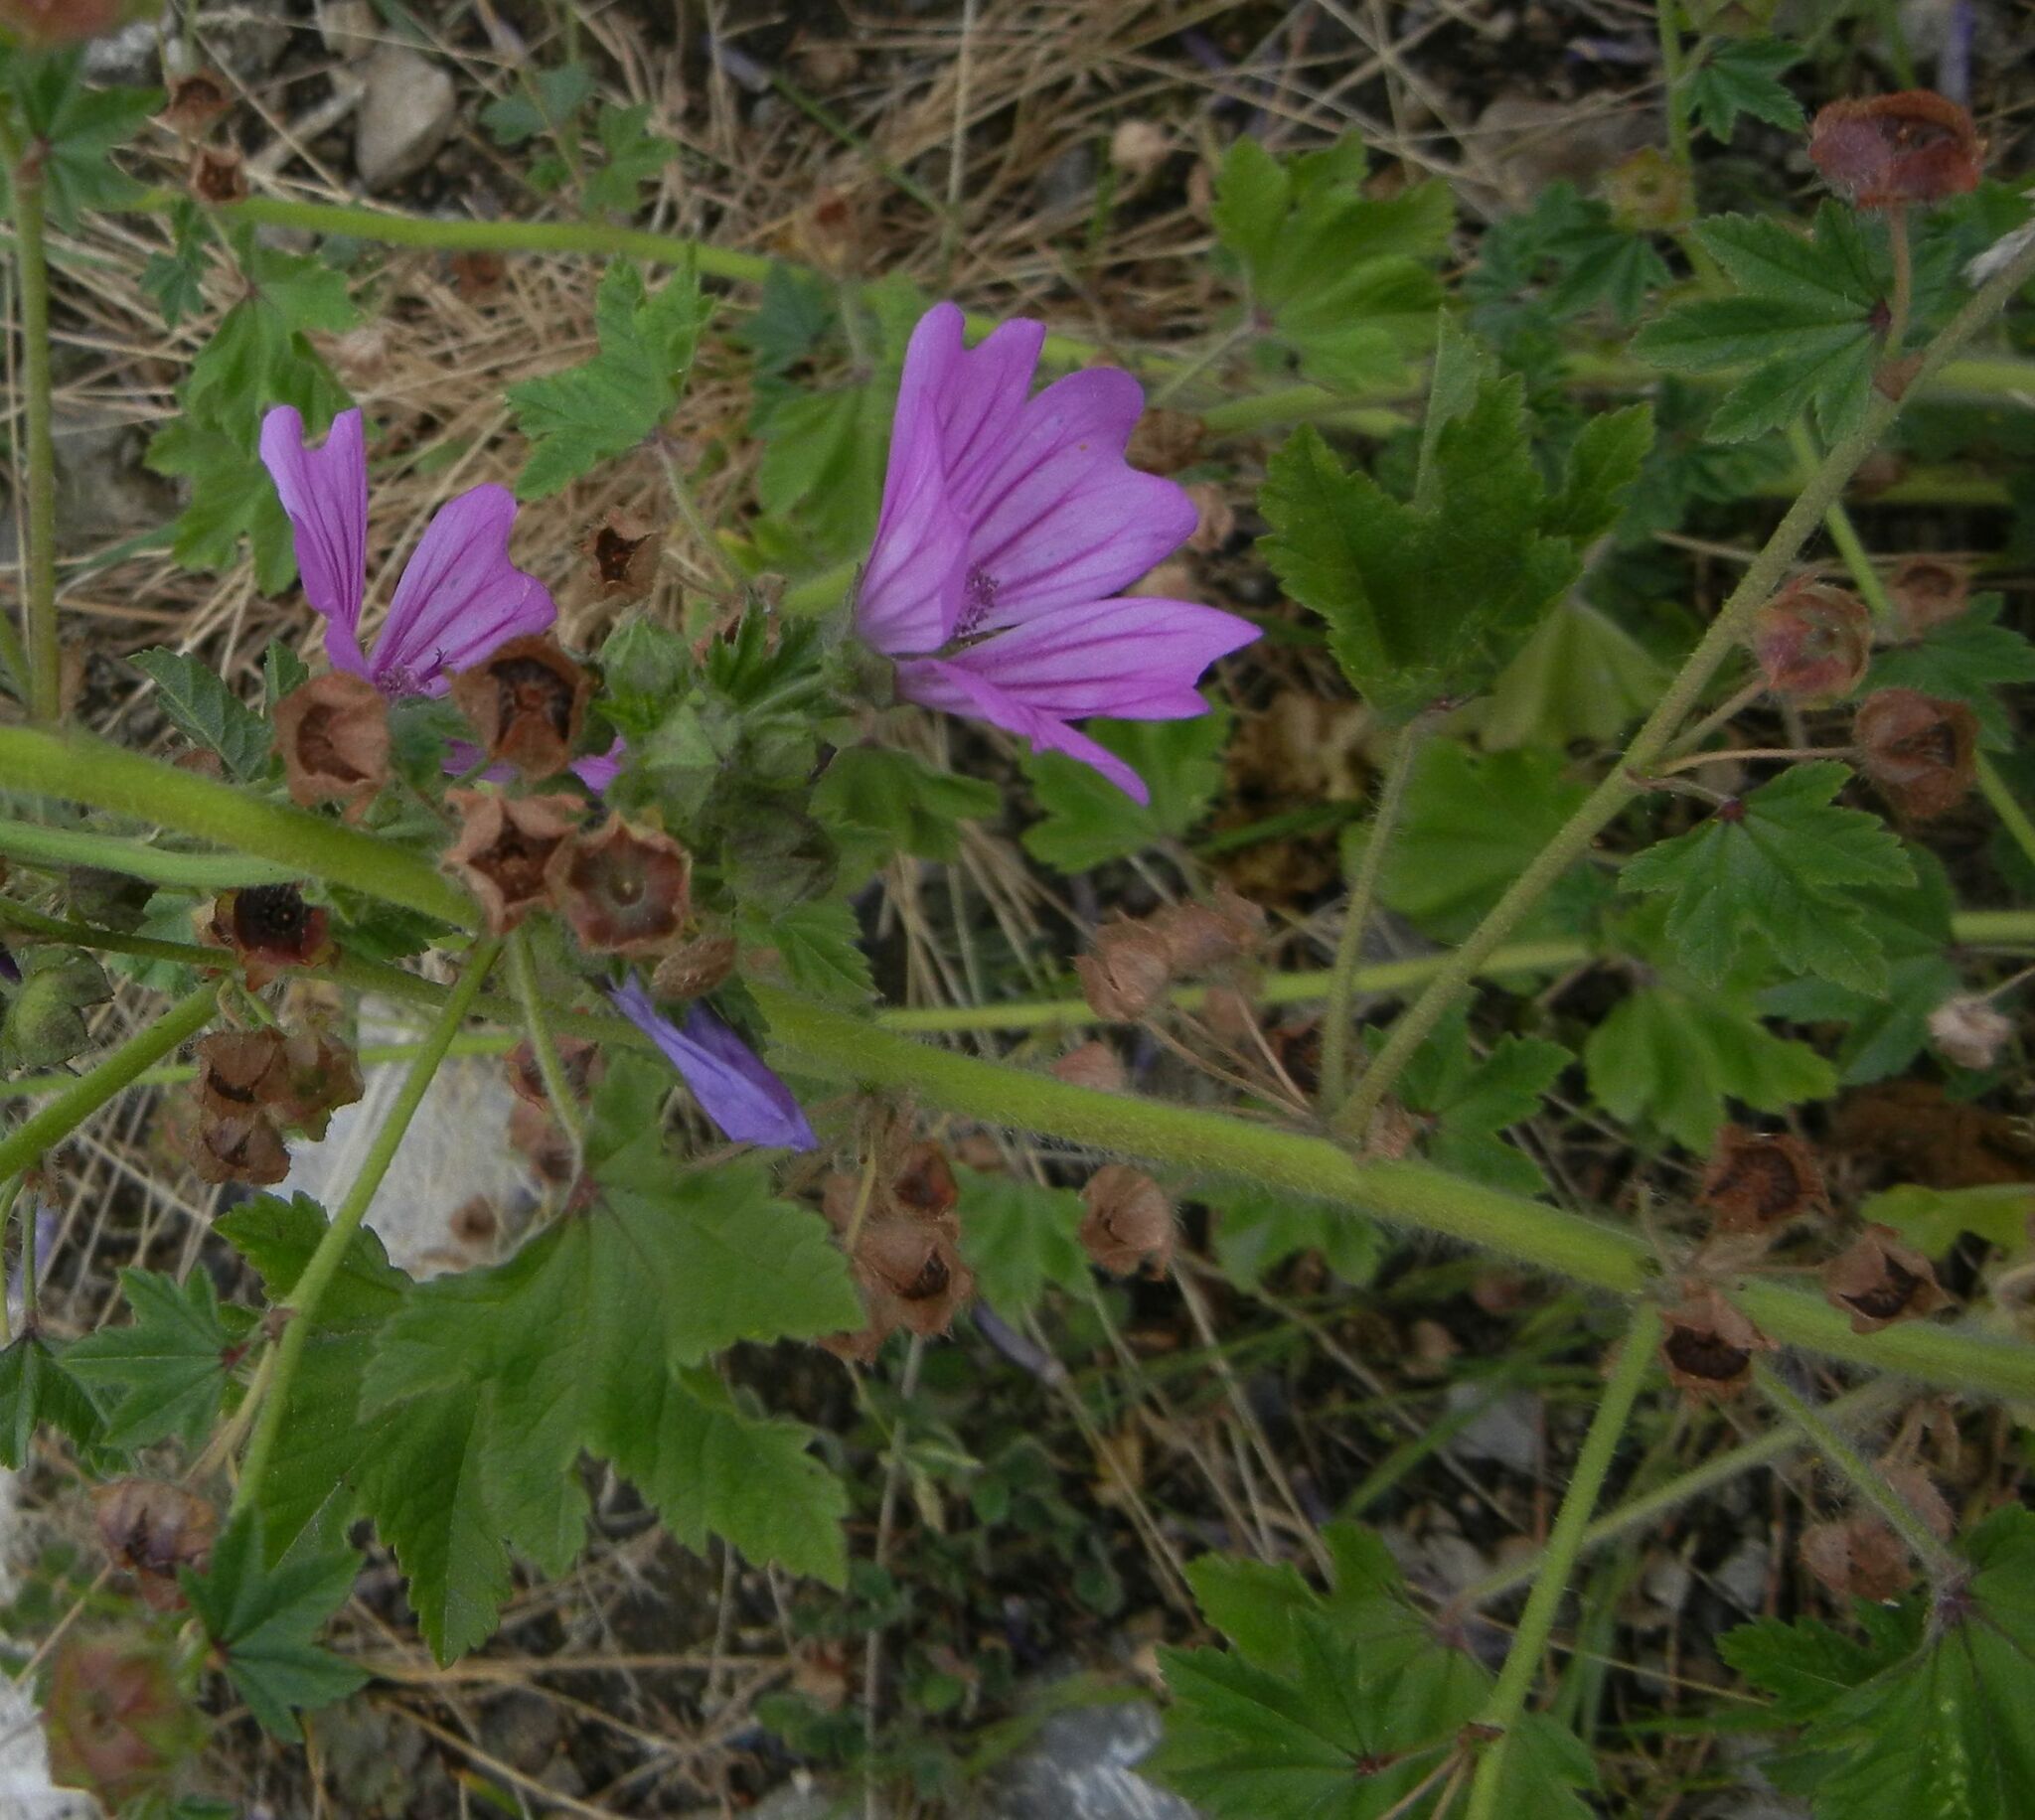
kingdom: Plantae
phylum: Tracheophyta
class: Magnoliopsida
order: Malvales
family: Malvaceae
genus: Malva
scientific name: Malva sylvestris
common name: Common mallow
